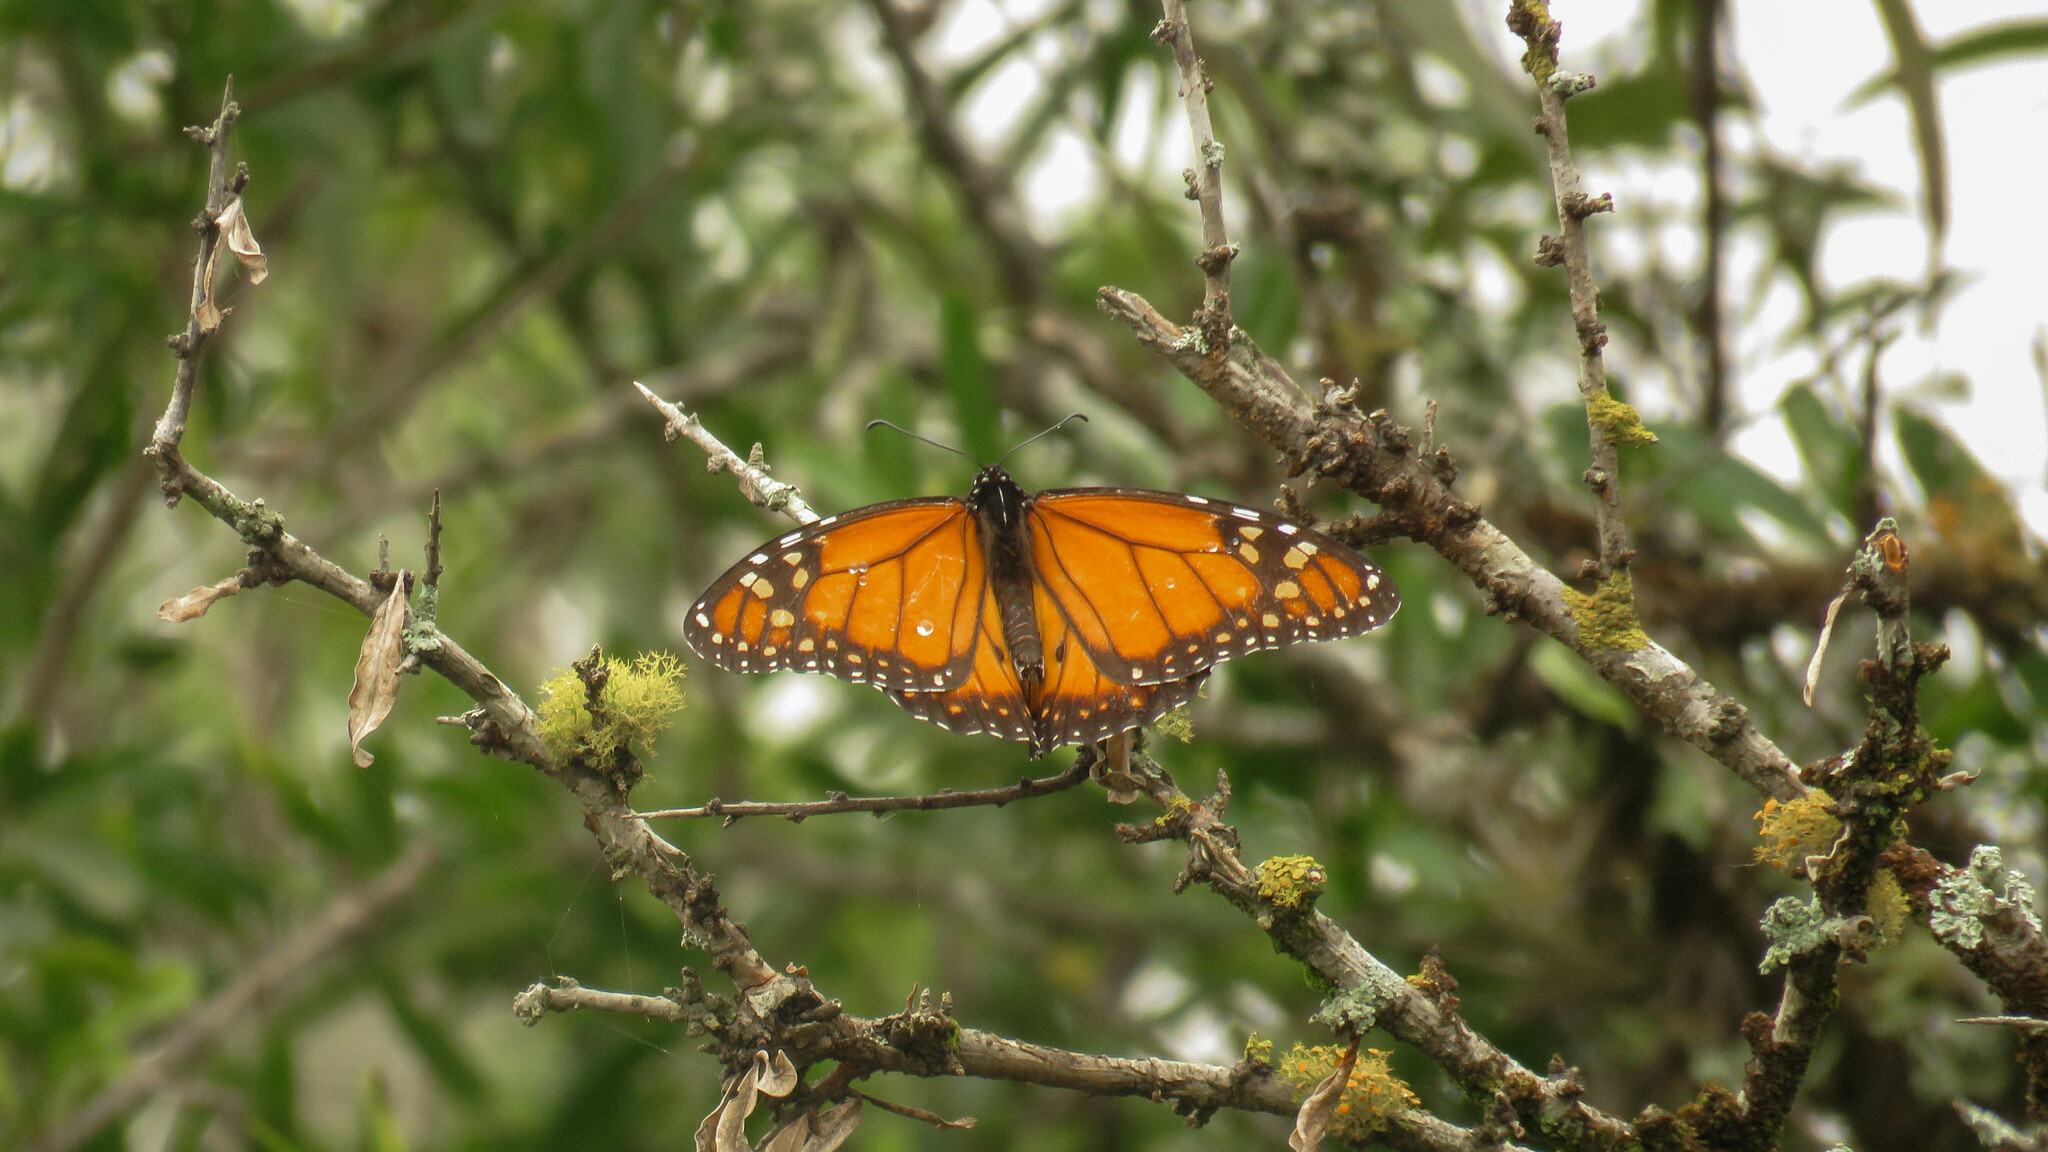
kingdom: Animalia
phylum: Arthropoda
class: Insecta
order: Lepidoptera
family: Nymphalidae
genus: Danaus
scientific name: Danaus erippus
